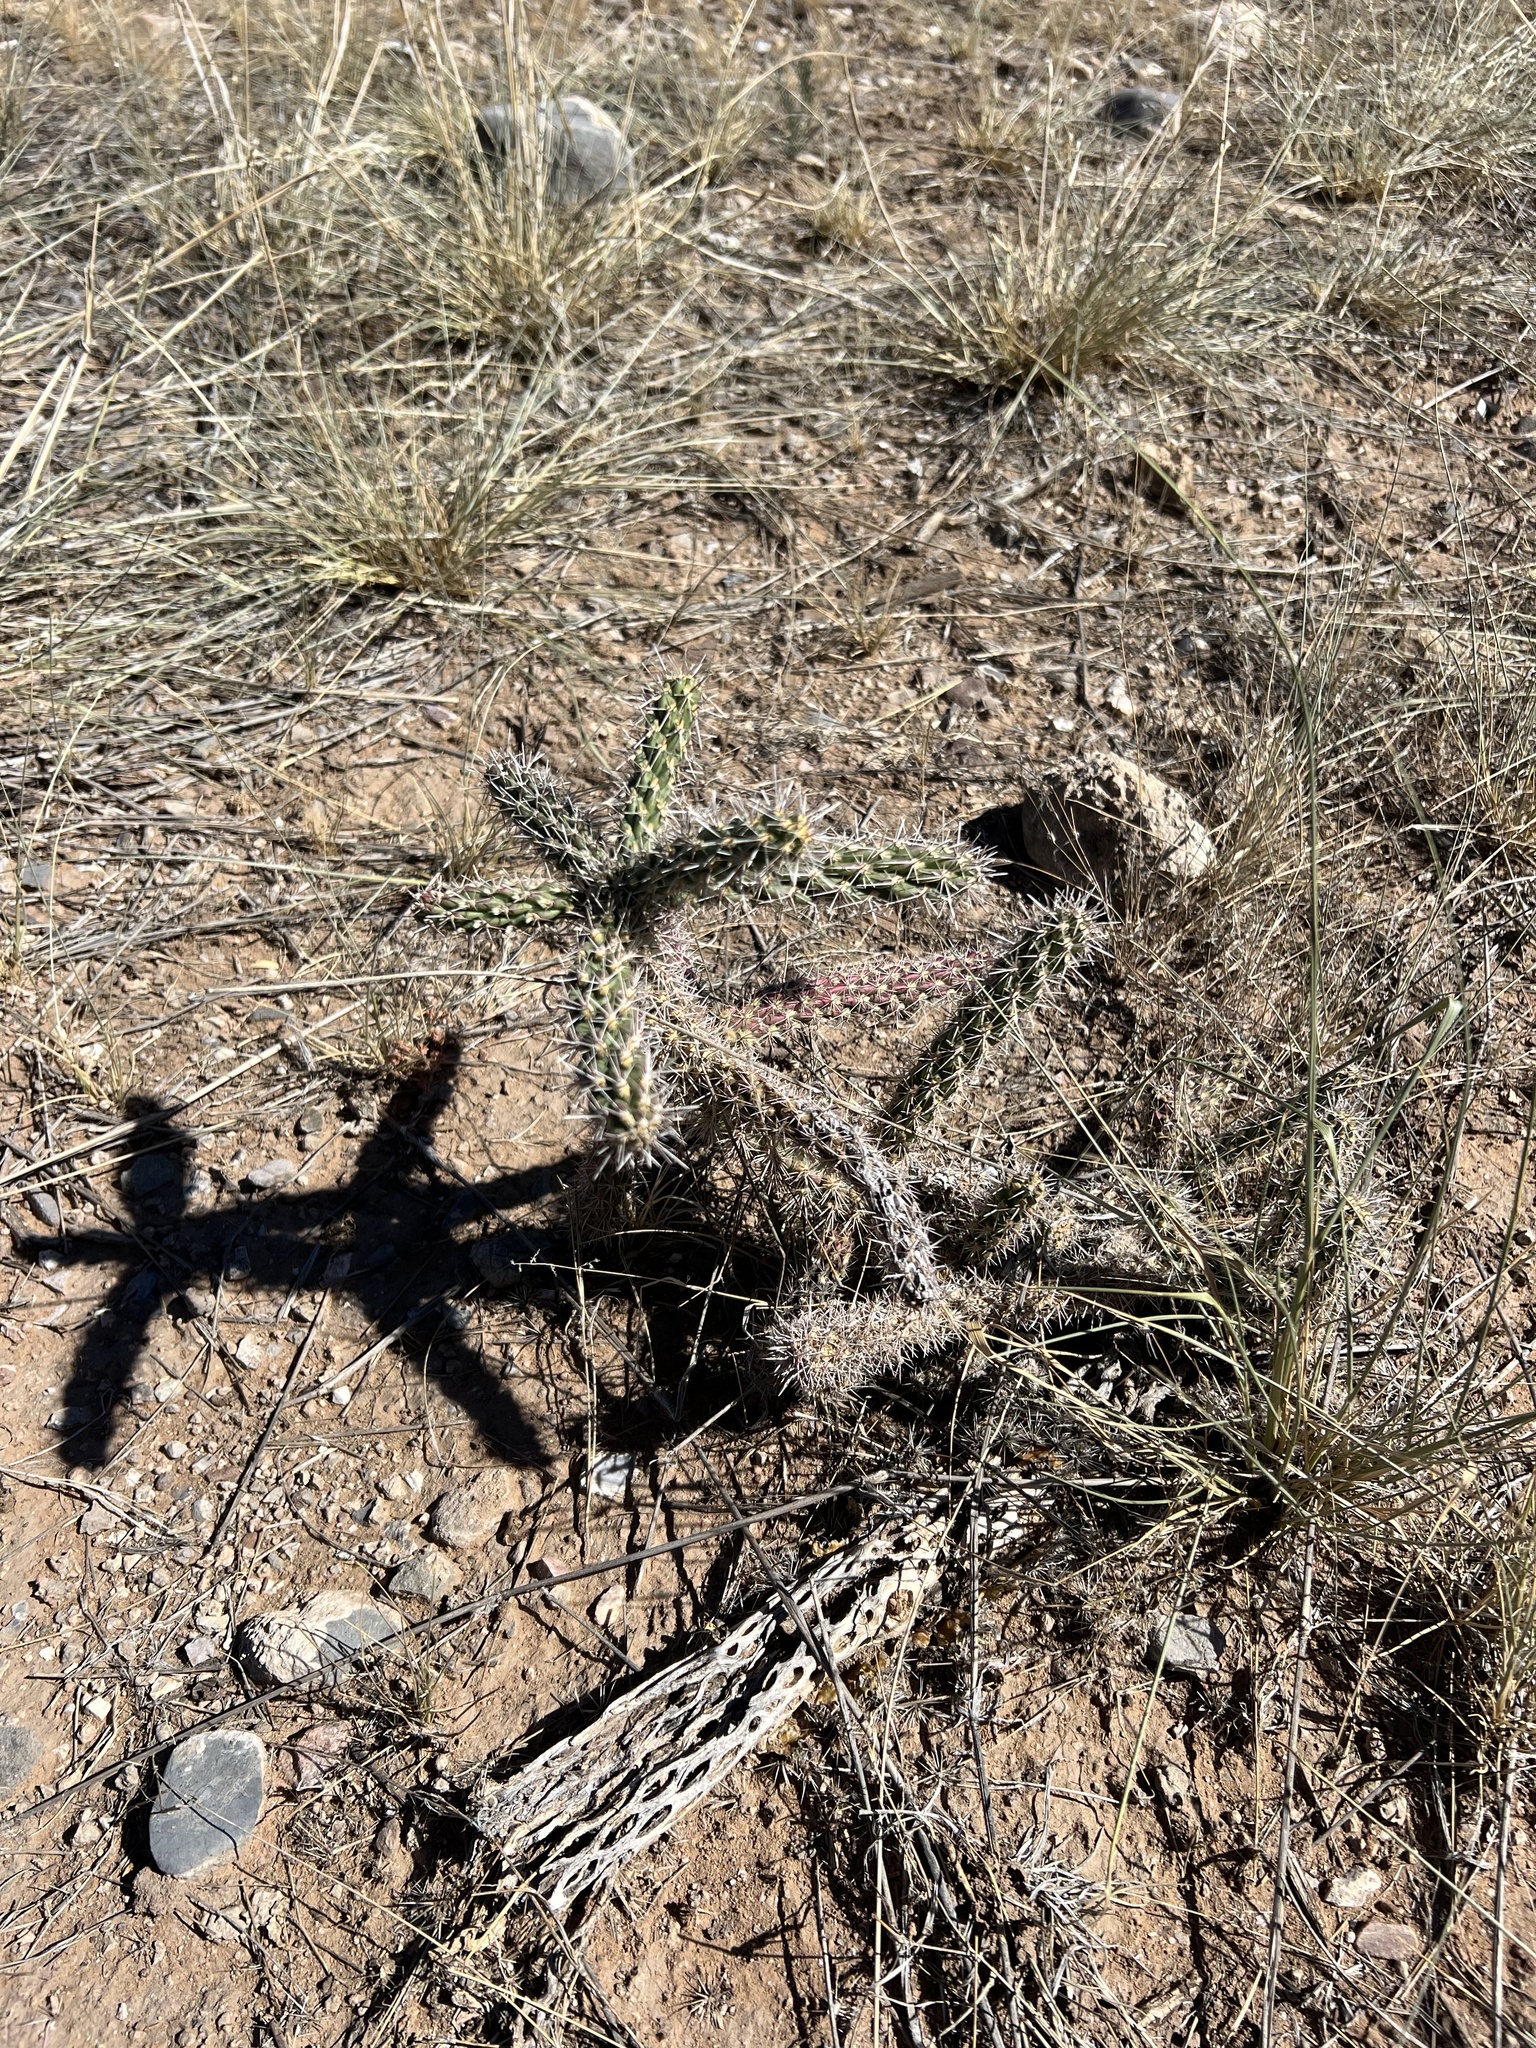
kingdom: Plantae
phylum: Tracheophyta
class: Magnoliopsida
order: Caryophyllales
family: Cactaceae
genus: Cylindropuntia
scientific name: Cylindropuntia imbricata
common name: Candelabrum cactus
